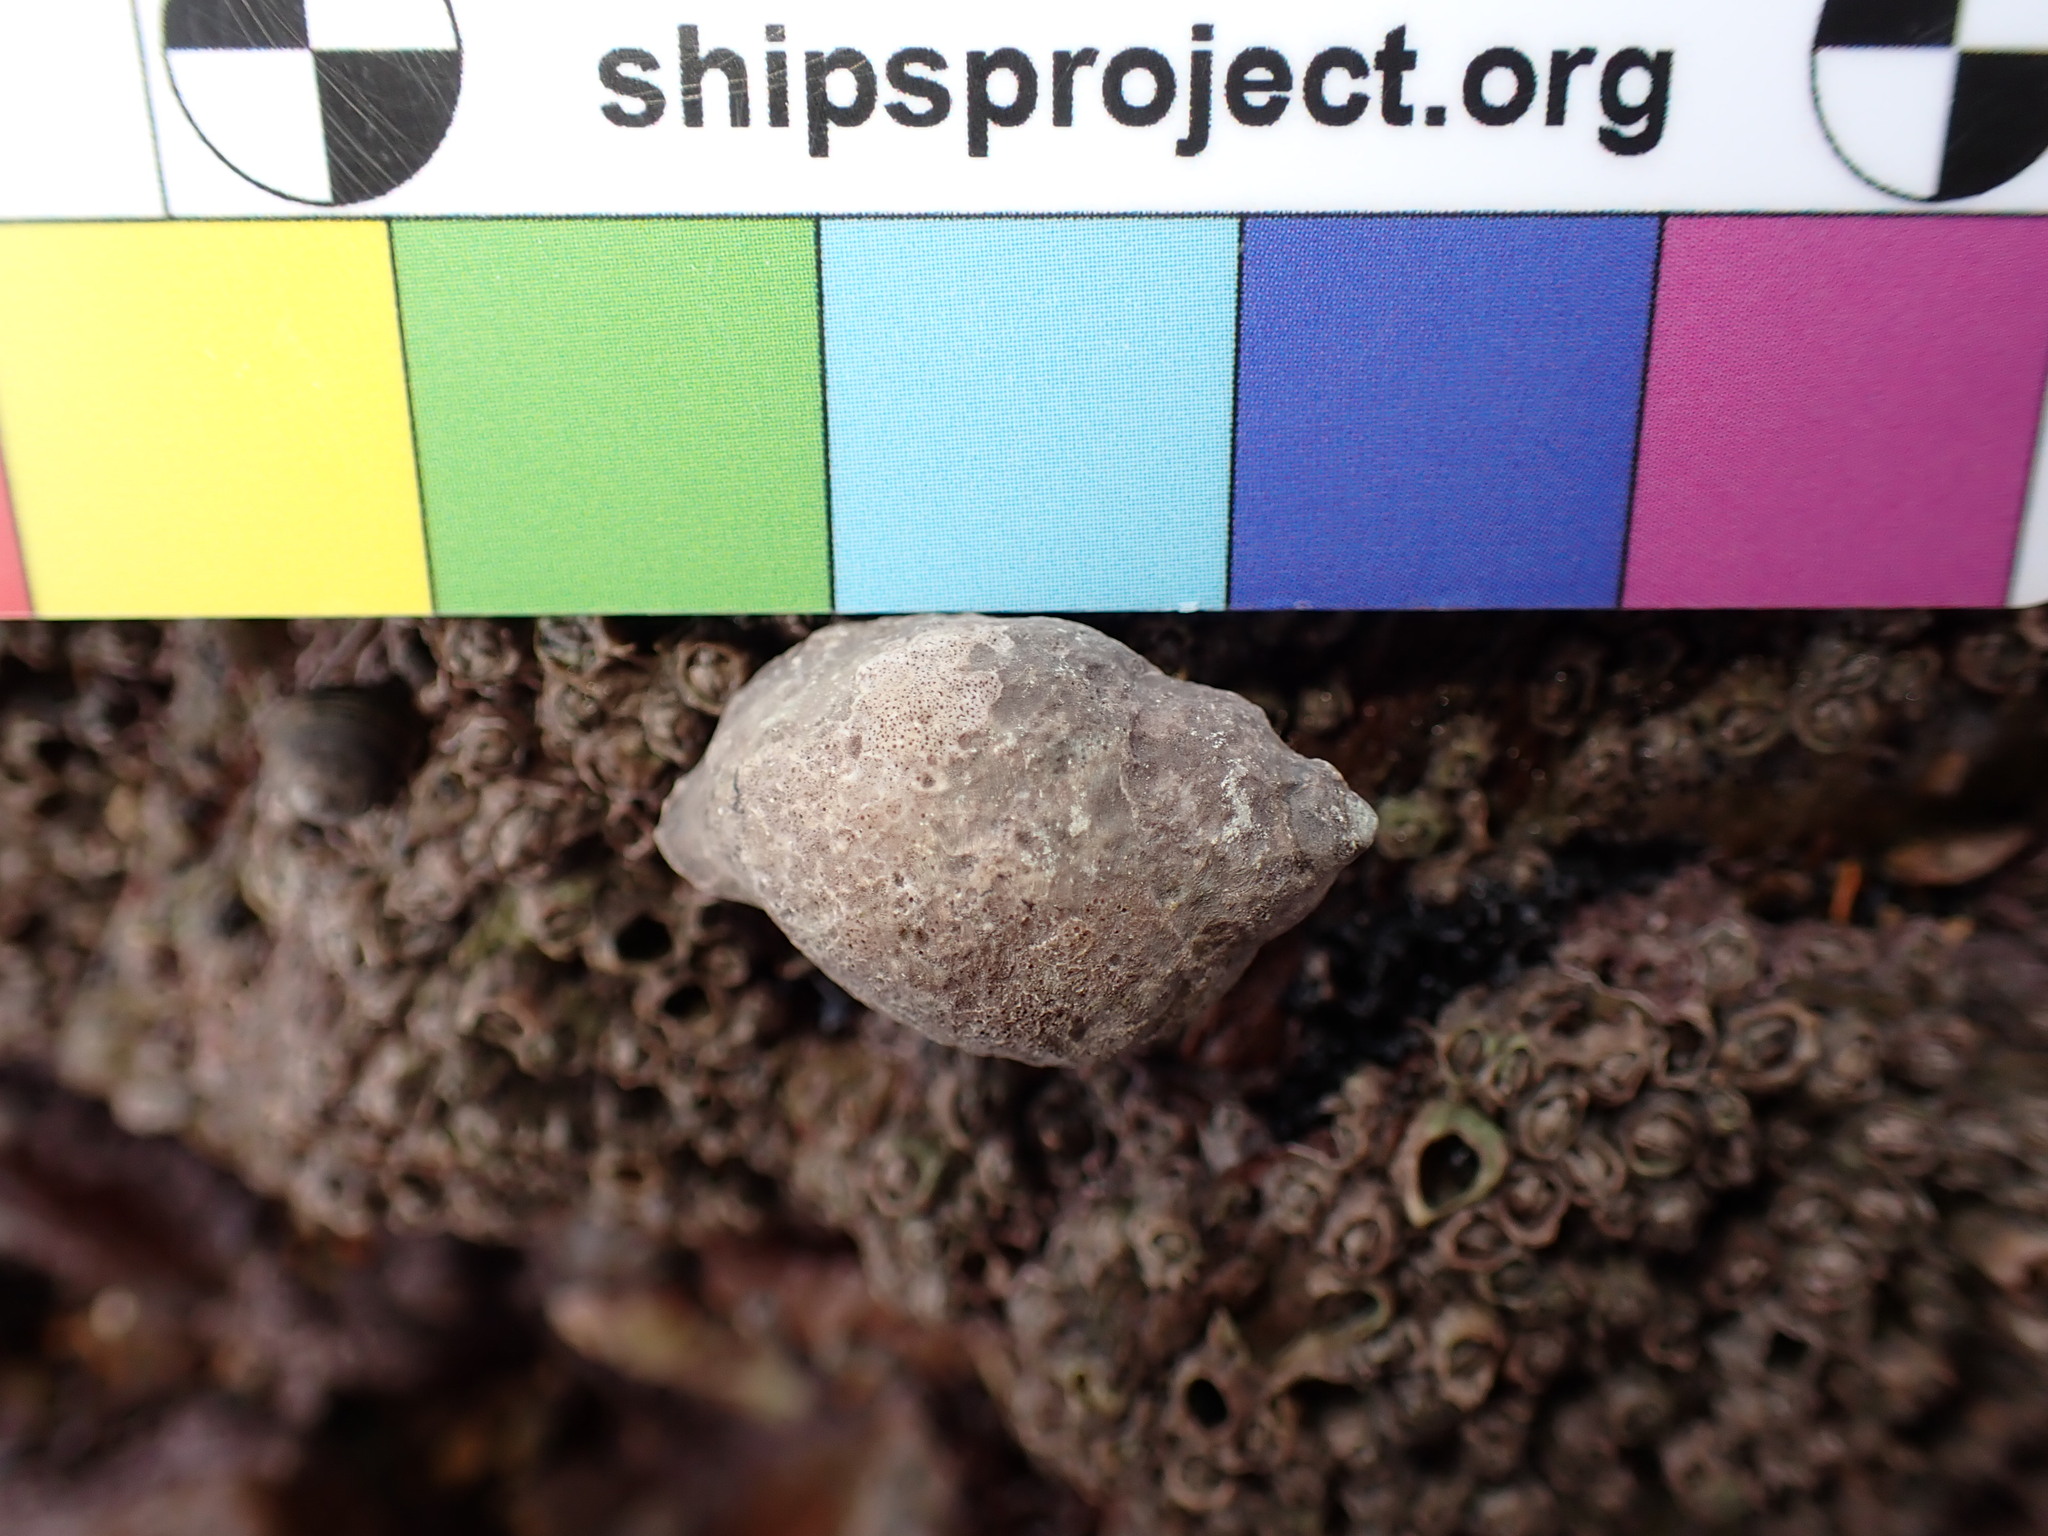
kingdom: Animalia
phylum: Mollusca
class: Gastropoda
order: Neogastropoda
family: Muricidae
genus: Nucella
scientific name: Nucella lapillus
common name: Dog whelk
